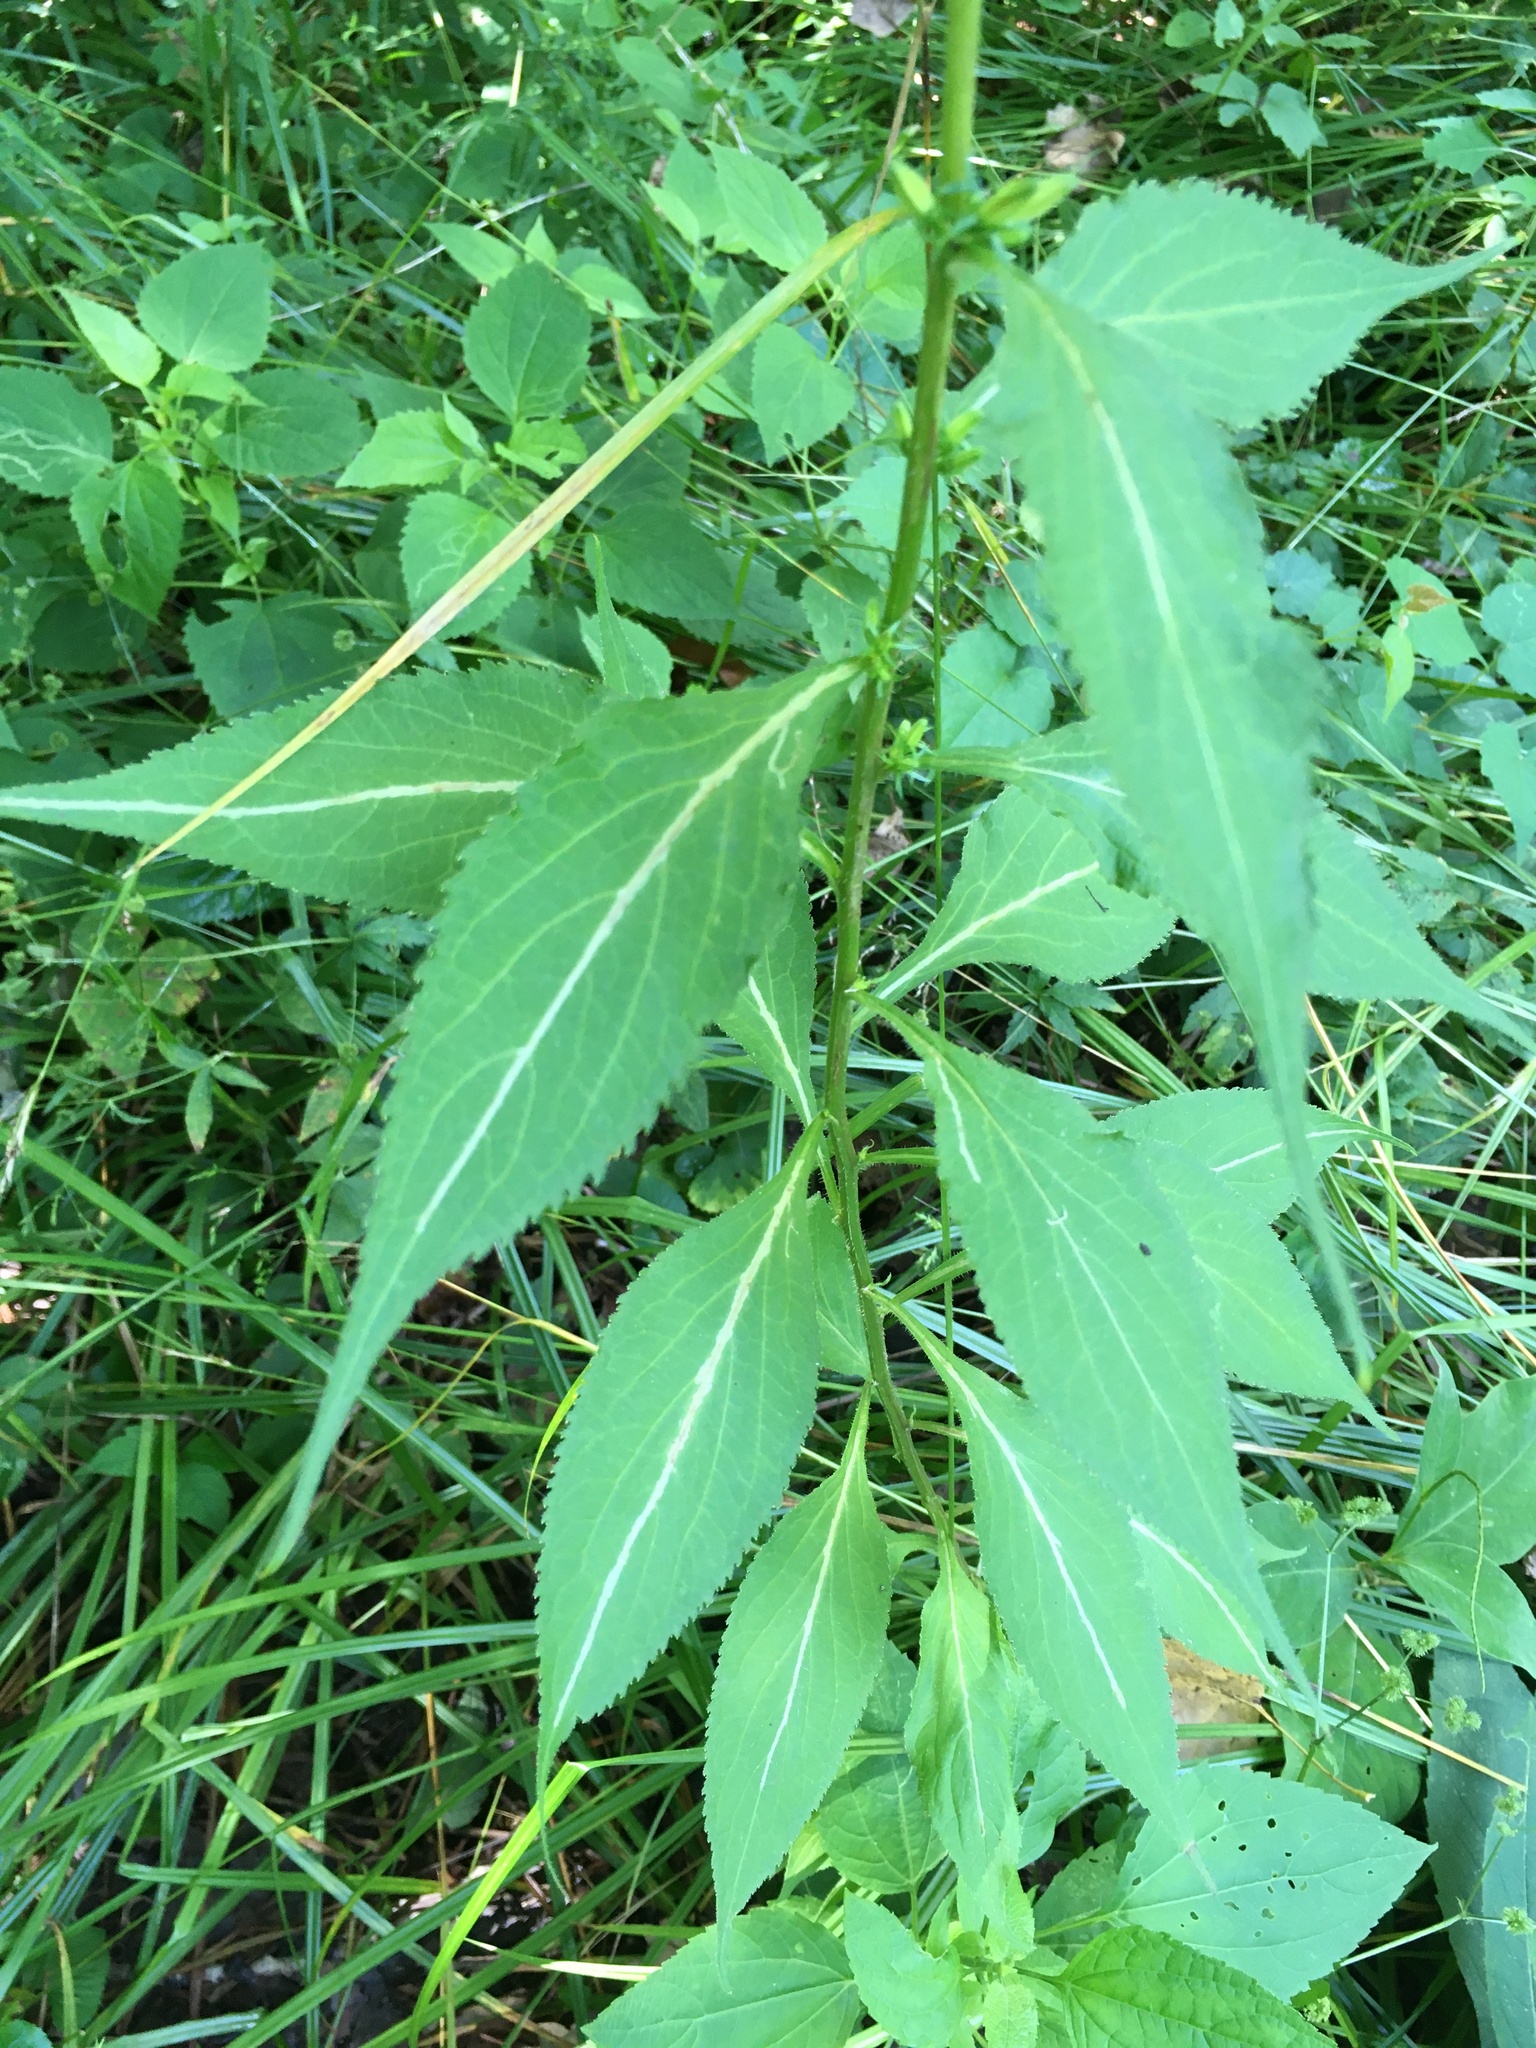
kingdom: Plantae
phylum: Tracheophyta
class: Magnoliopsida
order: Asterales
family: Campanulaceae
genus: Campanulastrum
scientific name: Campanulastrum americanum
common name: American bellflower
